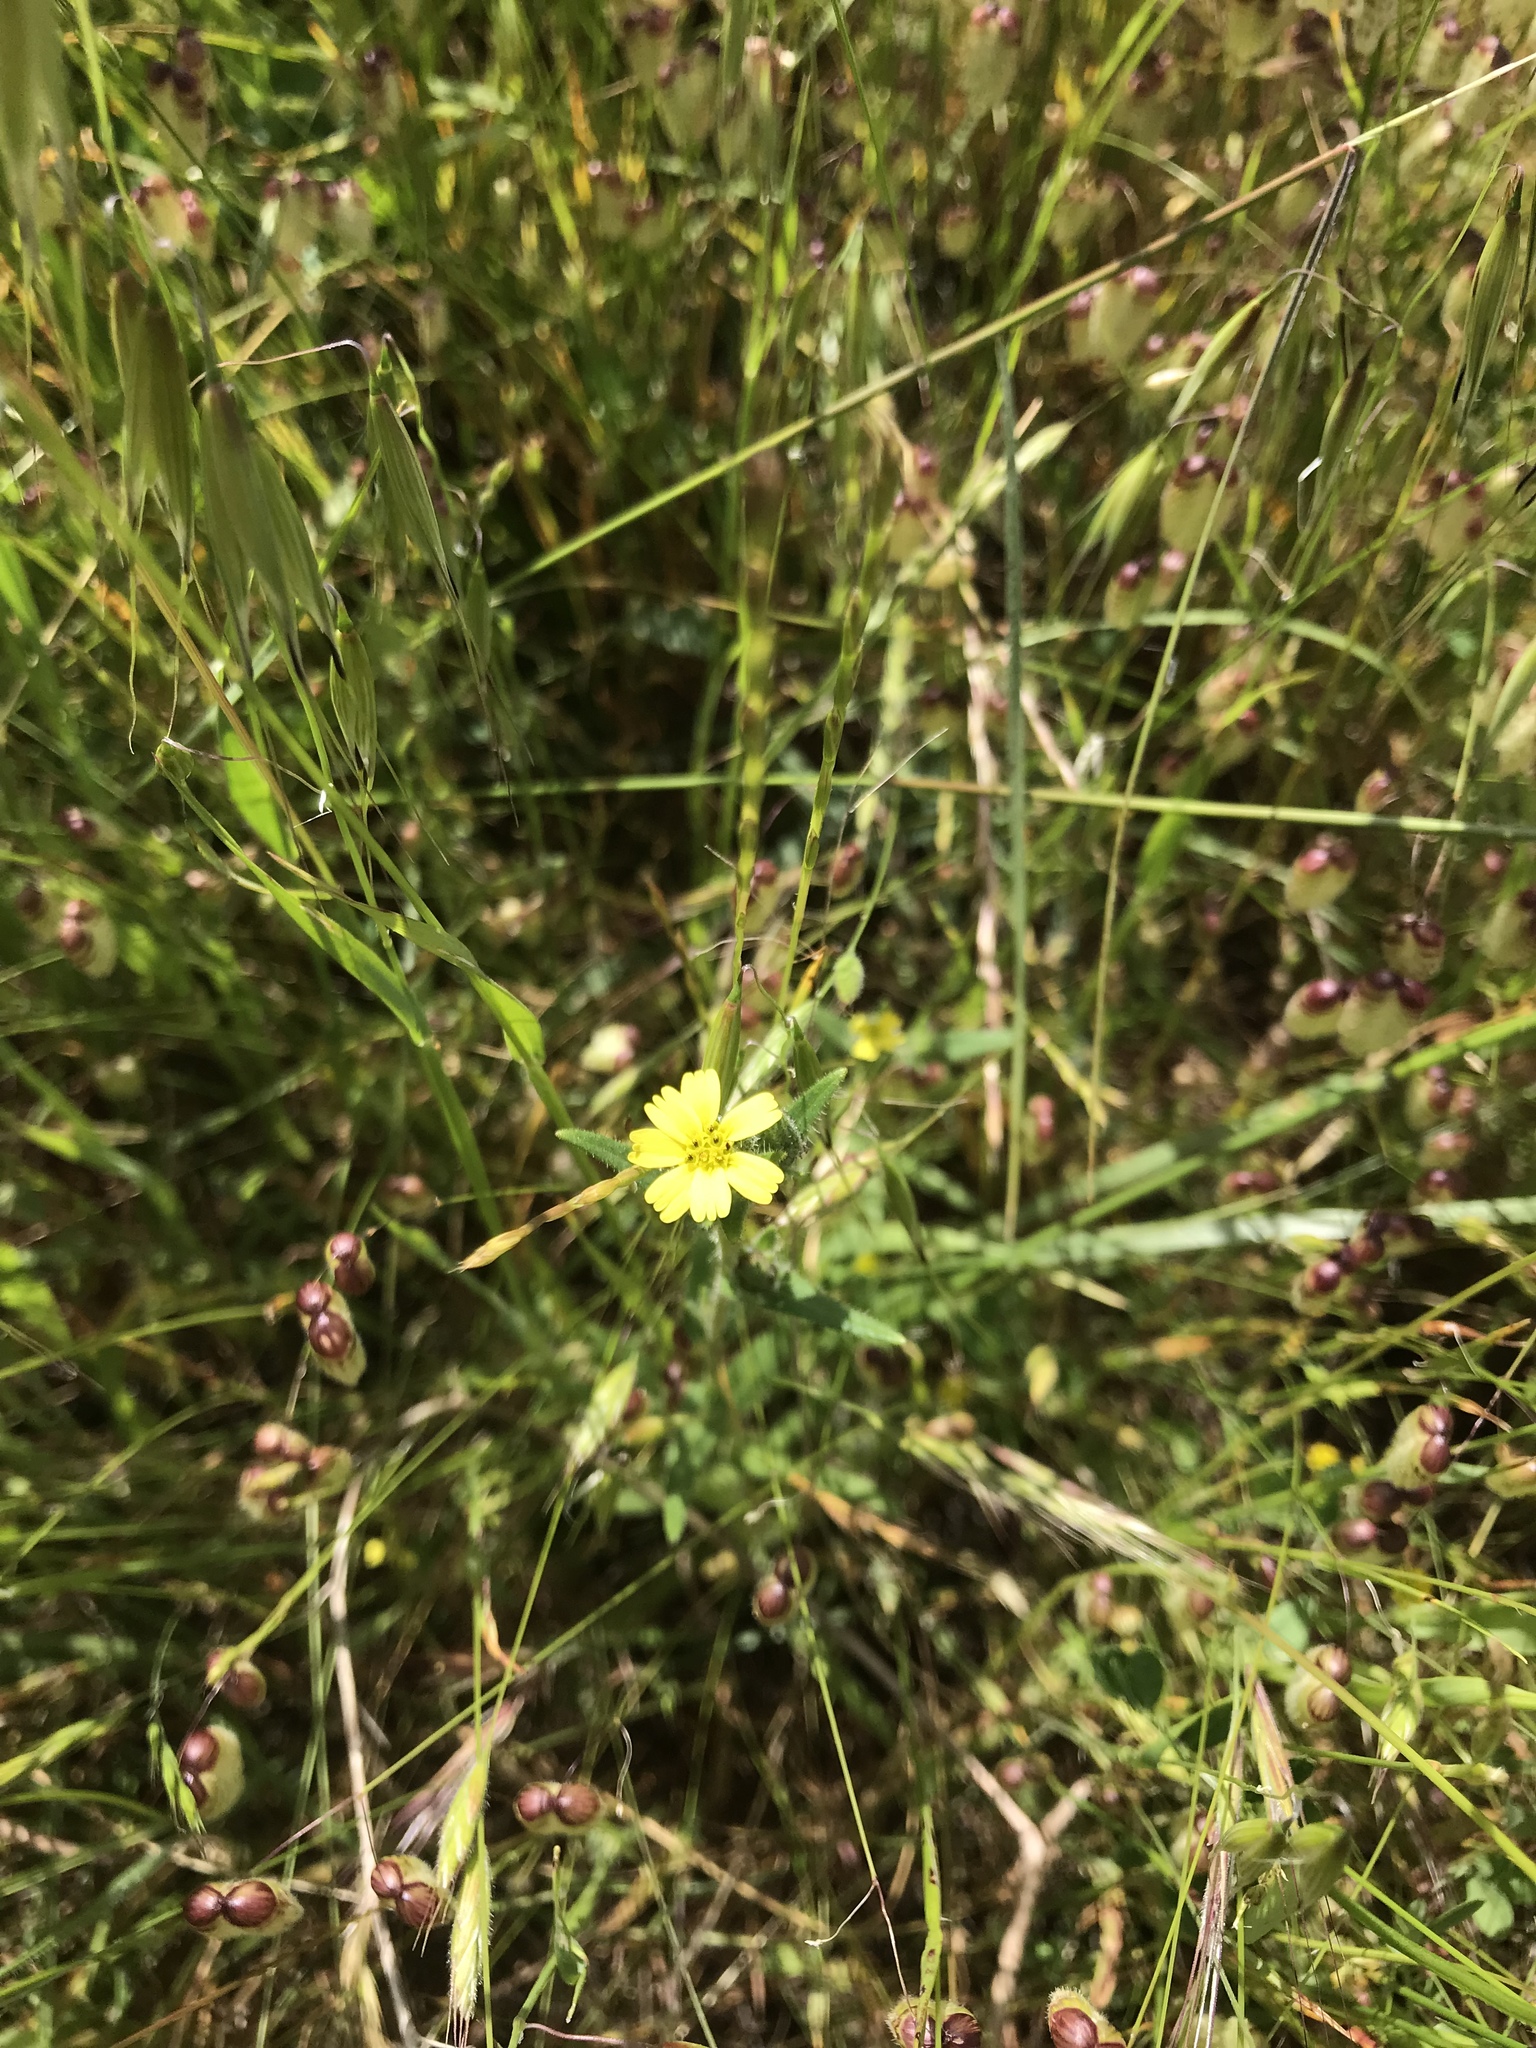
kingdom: Plantae
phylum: Tracheophyta
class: Magnoliopsida
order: Asterales
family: Asteraceae
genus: Madia
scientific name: Madia gracilis
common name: Grassy tarweed
